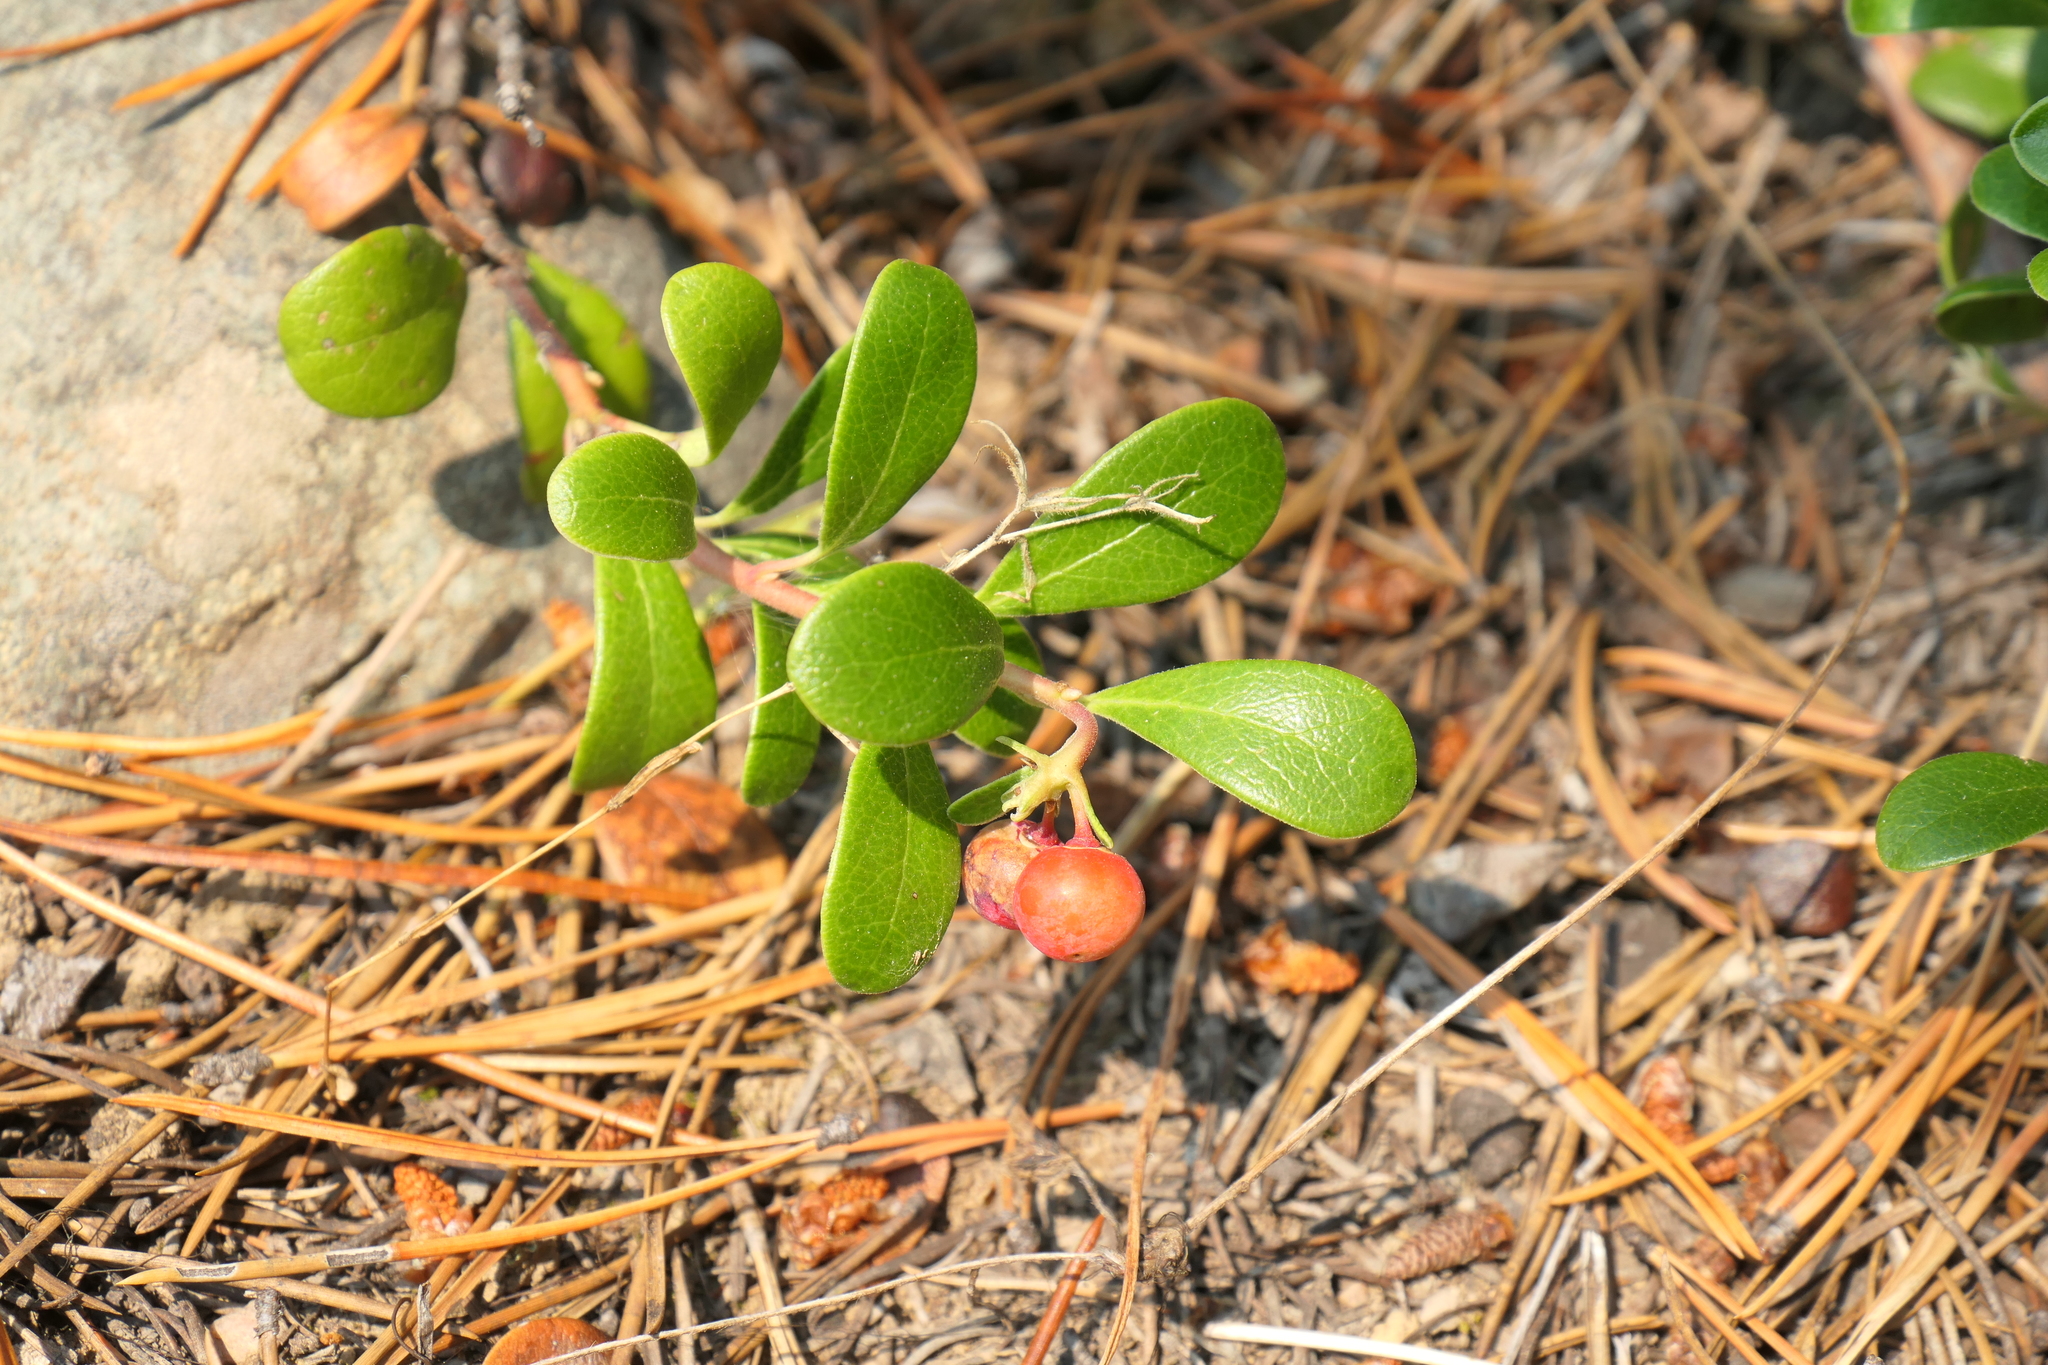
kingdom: Plantae
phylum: Tracheophyta
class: Magnoliopsida
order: Ericales
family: Ericaceae
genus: Arctostaphylos
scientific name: Arctostaphylos uva-ursi
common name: Bearberry
